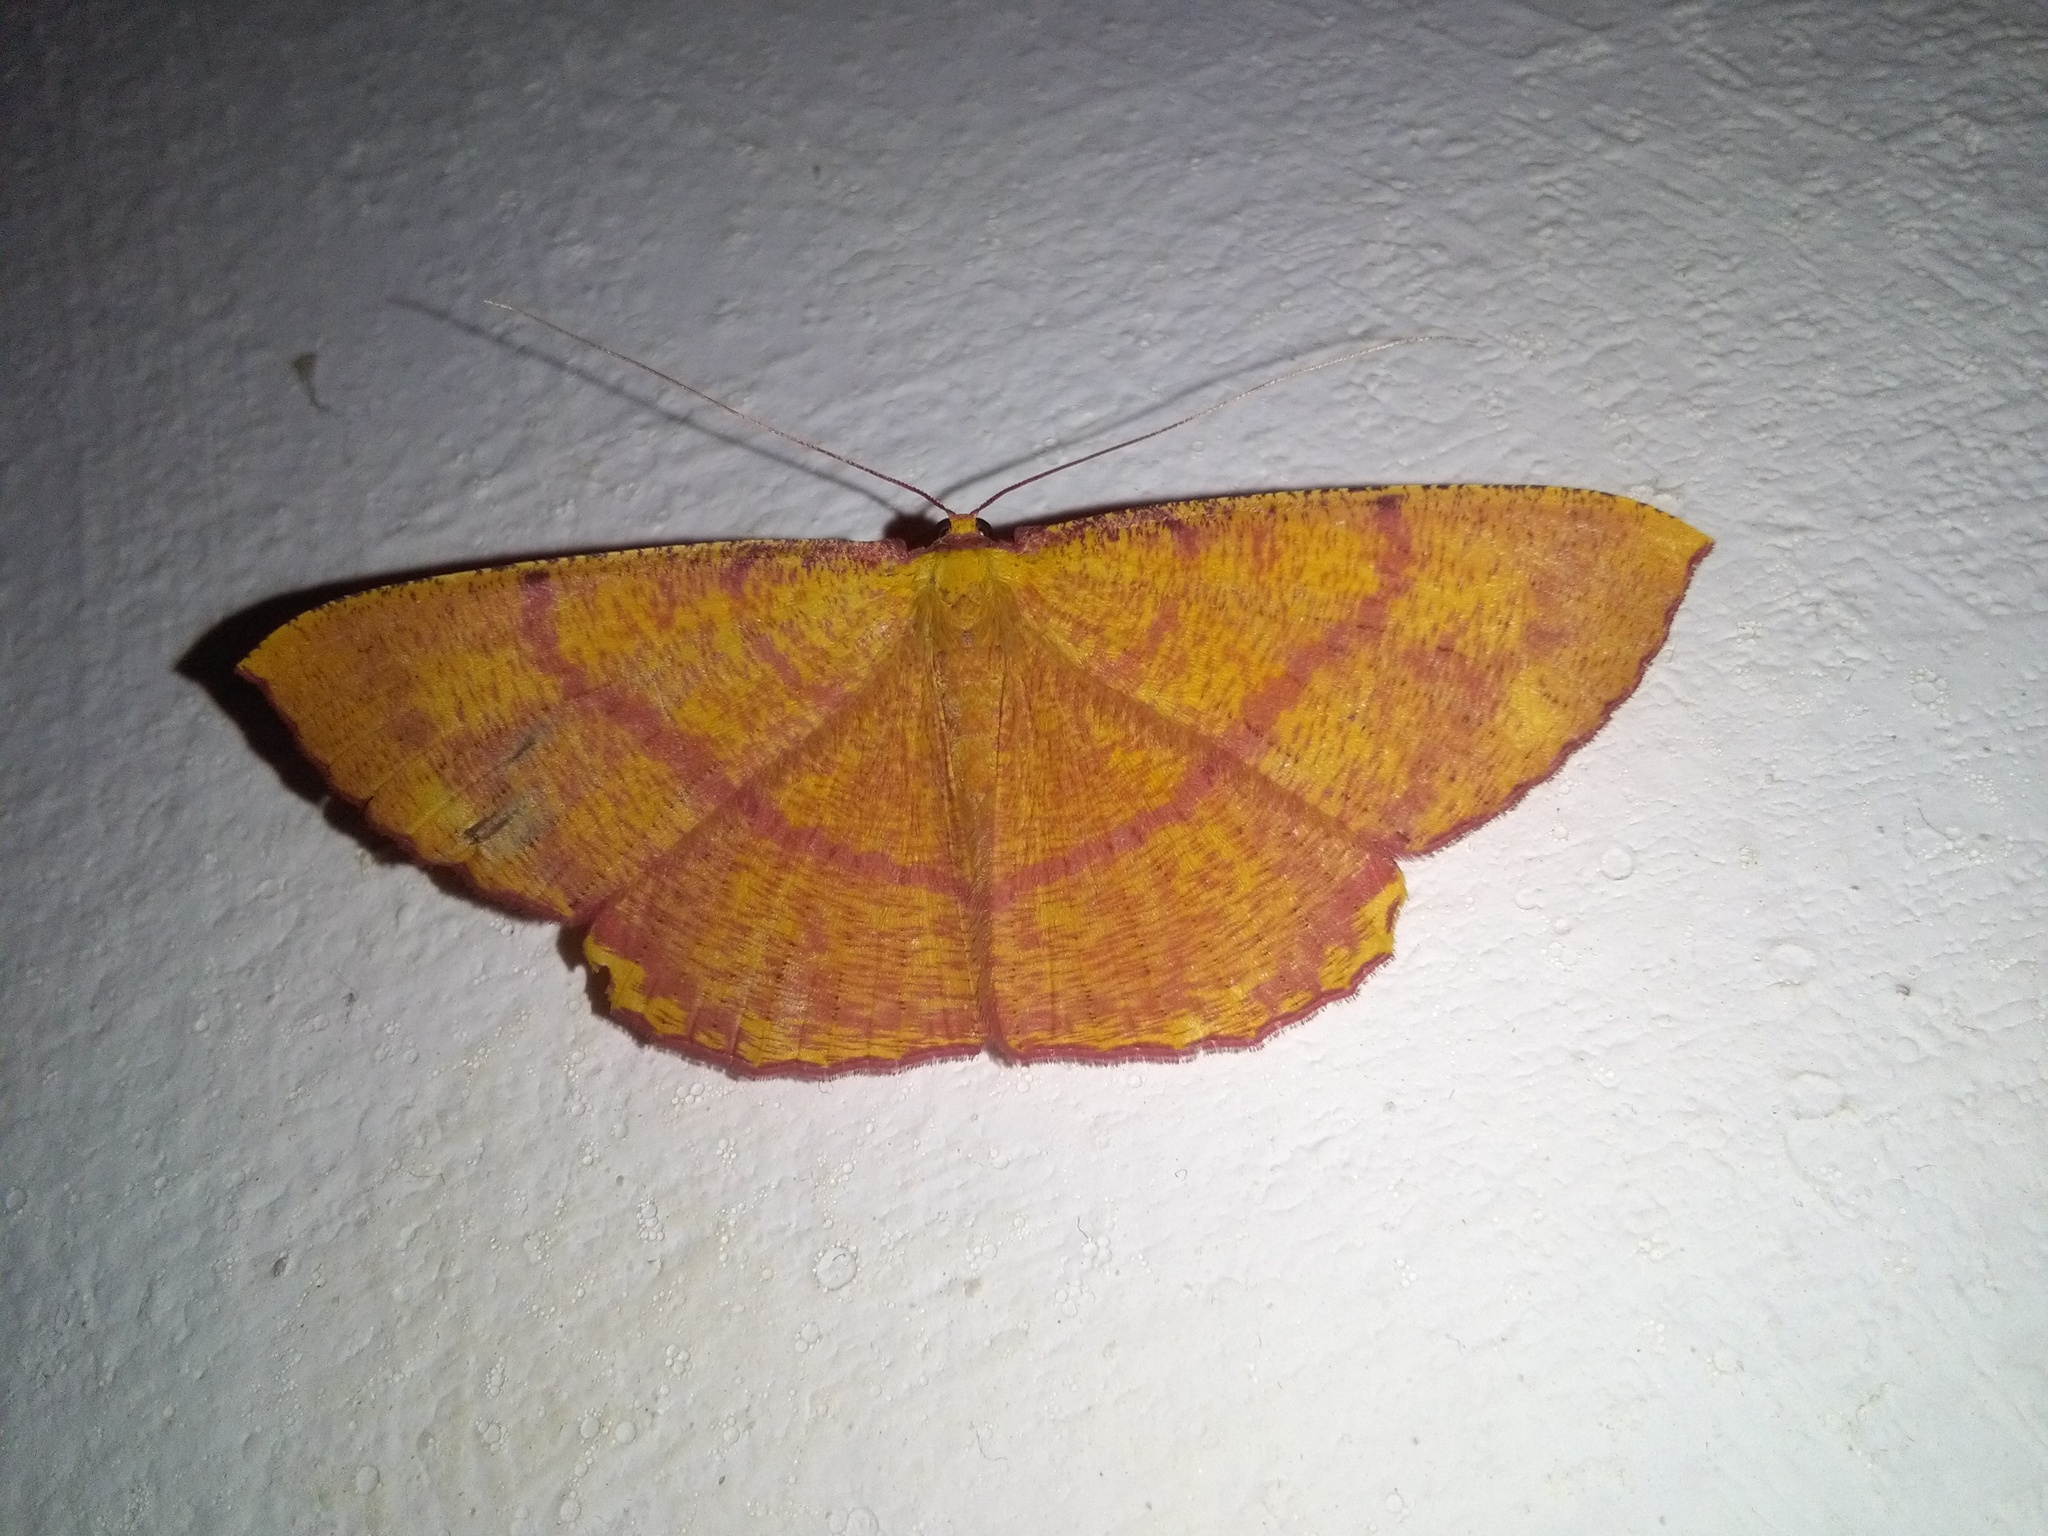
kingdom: Animalia
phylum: Arthropoda
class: Insecta
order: Lepidoptera
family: Geometridae
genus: Eumelea
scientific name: Eumelea rosalia
